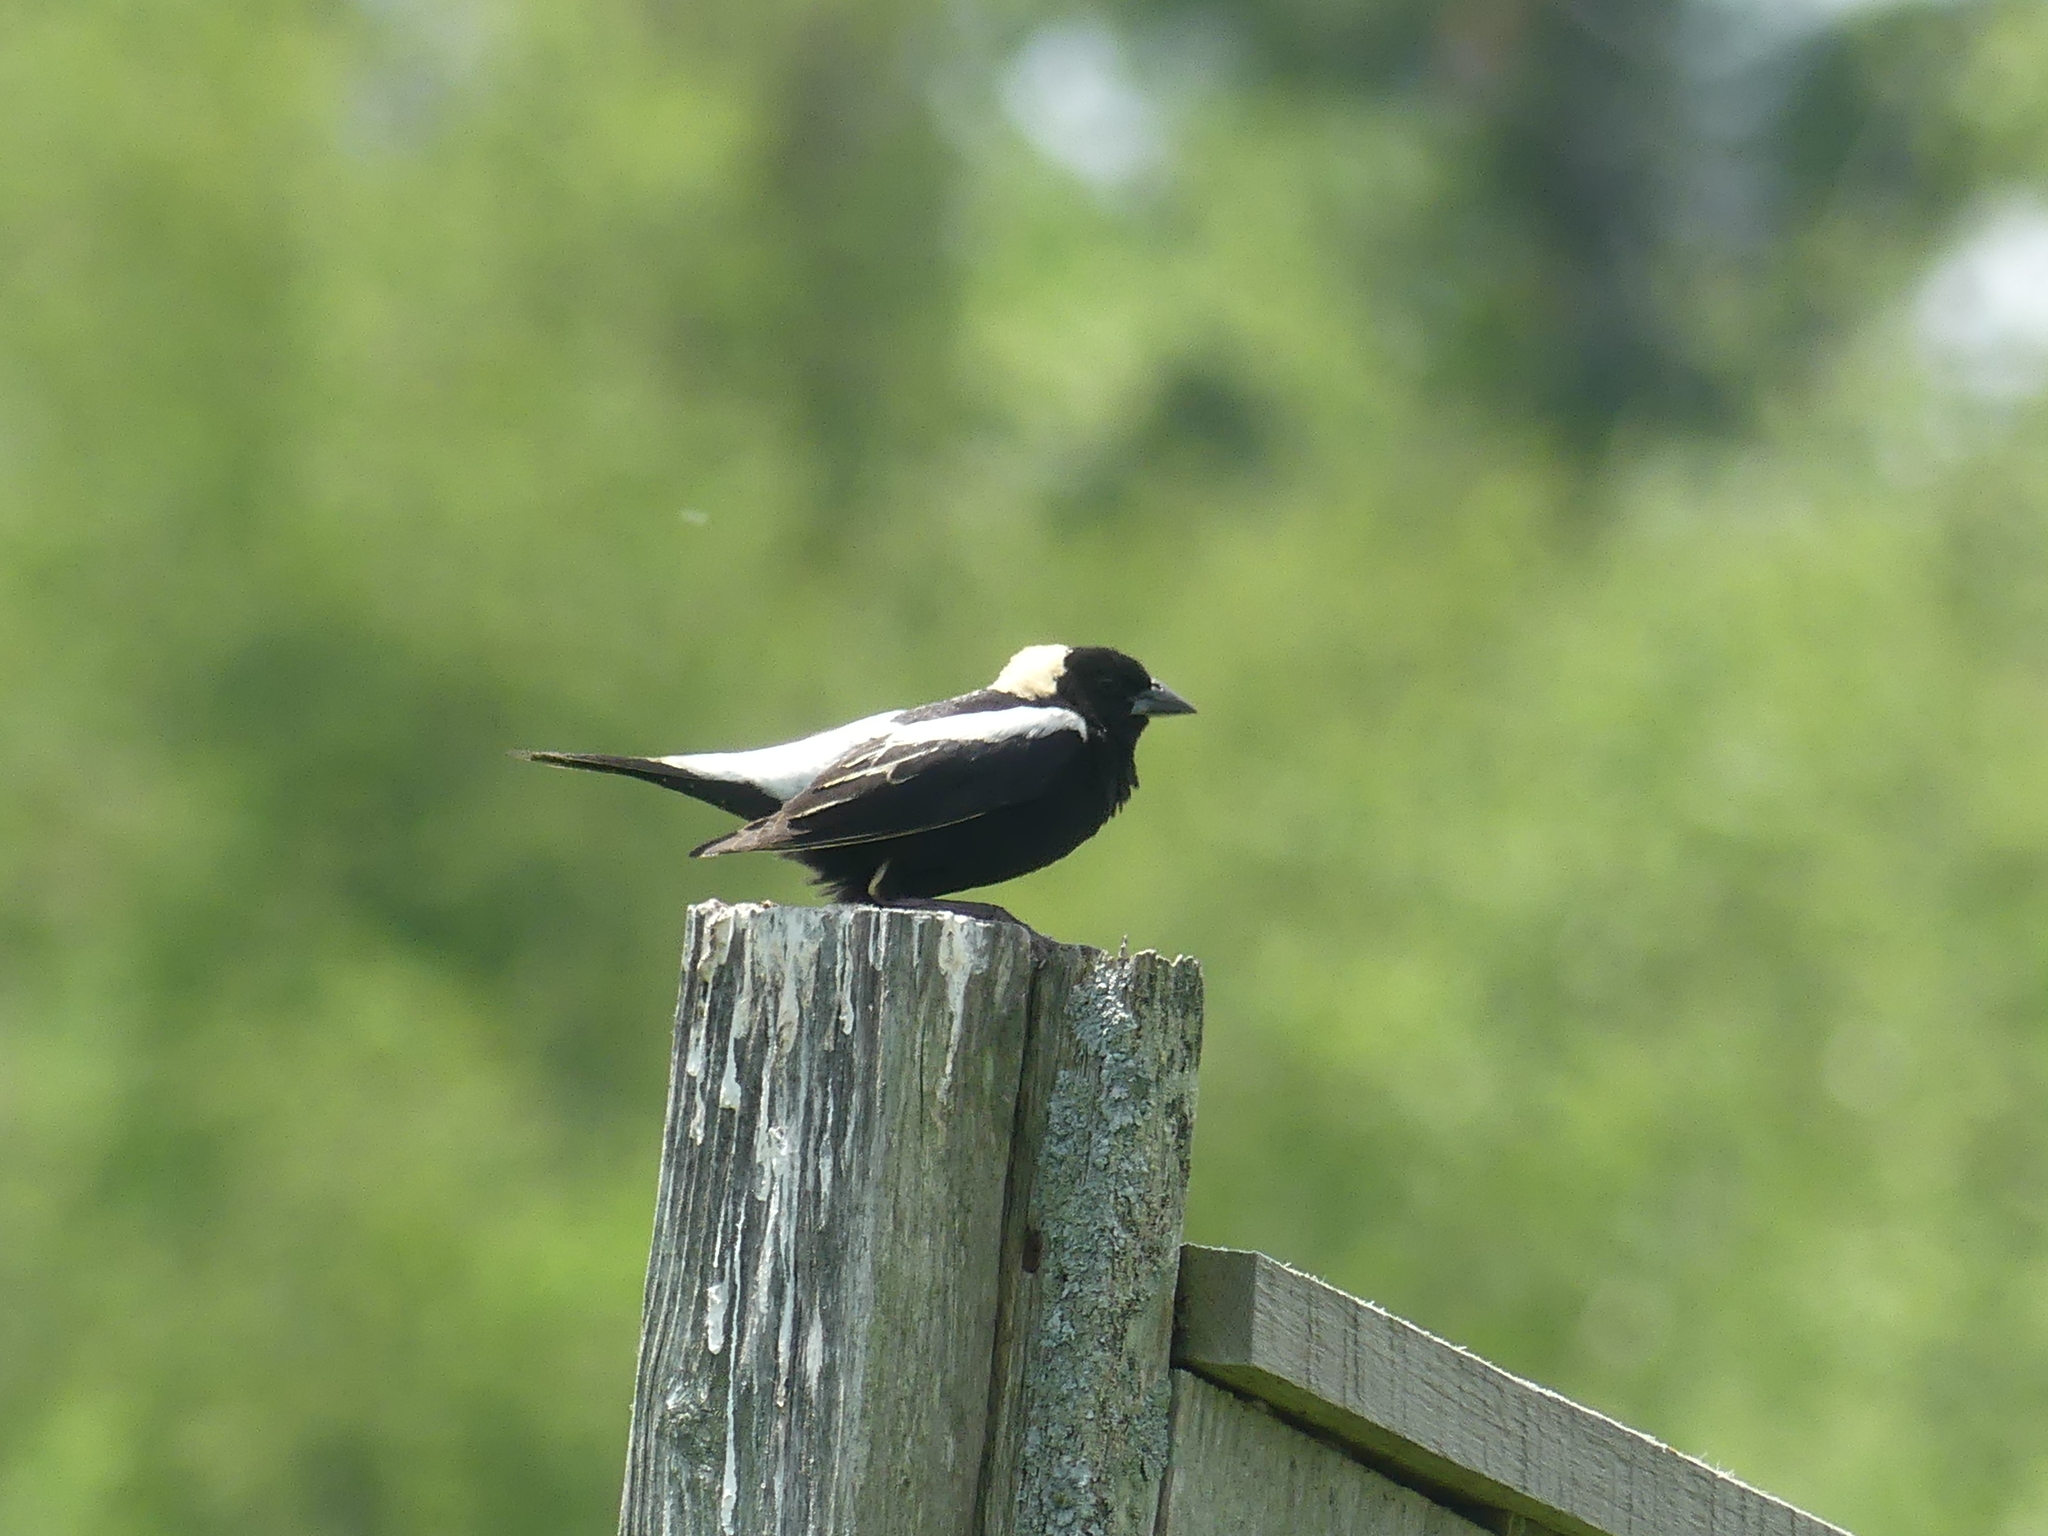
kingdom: Animalia
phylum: Chordata
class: Aves
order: Passeriformes
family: Icteridae
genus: Dolichonyx
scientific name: Dolichonyx oryzivorus
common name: Bobolink
